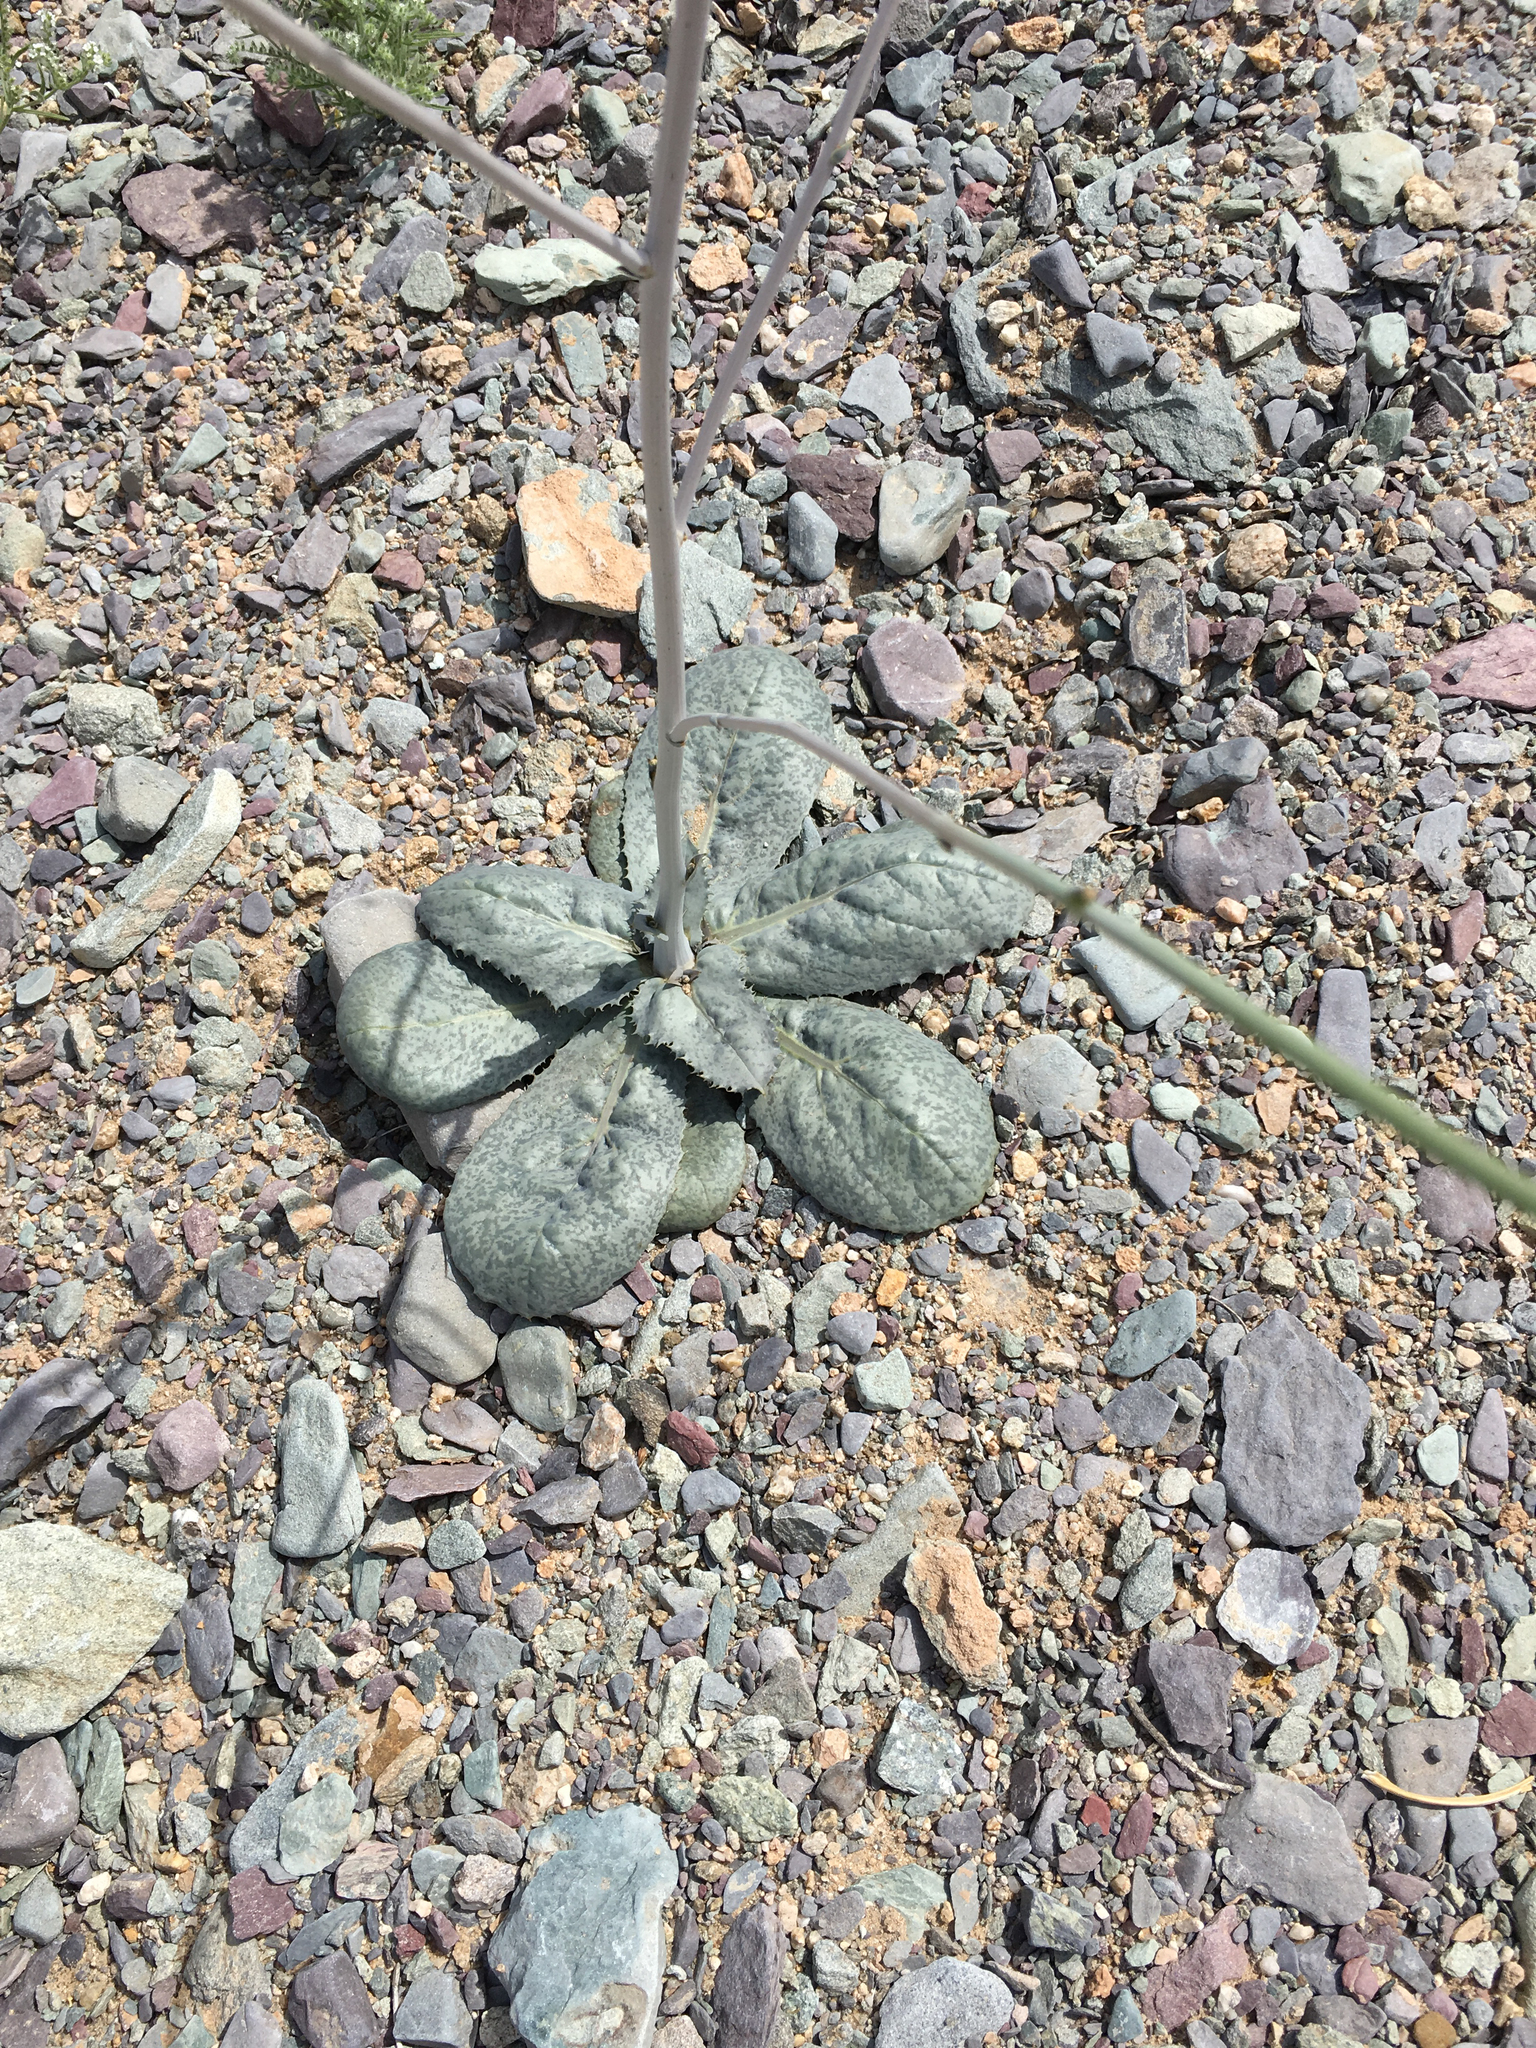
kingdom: Plantae
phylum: Tracheophyta
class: Magnoliopsida
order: Asterales
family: Asteraceae
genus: Atrichoseris
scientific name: Atrichoseris platyphylla
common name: Tobaccoweed
